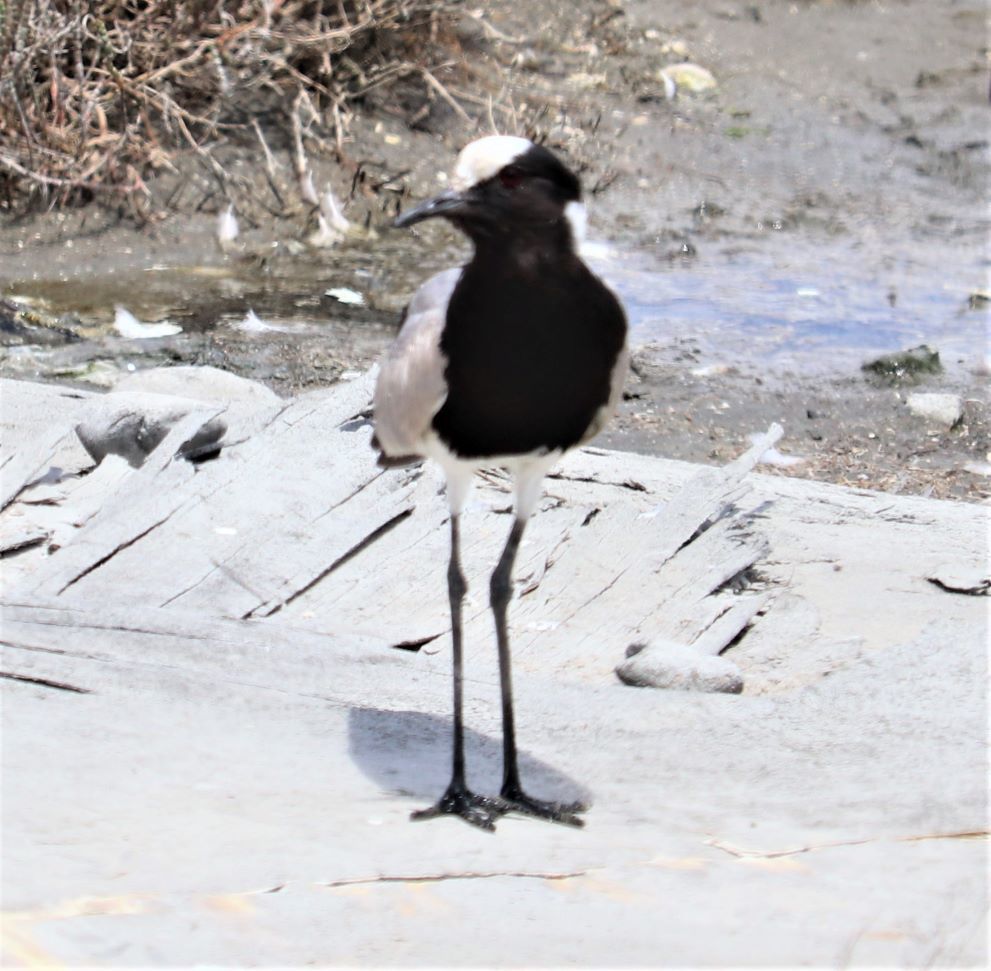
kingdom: Animalia
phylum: Chordata
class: Aves
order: Charadriiformes
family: Charadriidae
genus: Vanellus
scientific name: Vanellus armatus
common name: Blacksmith lapwing
